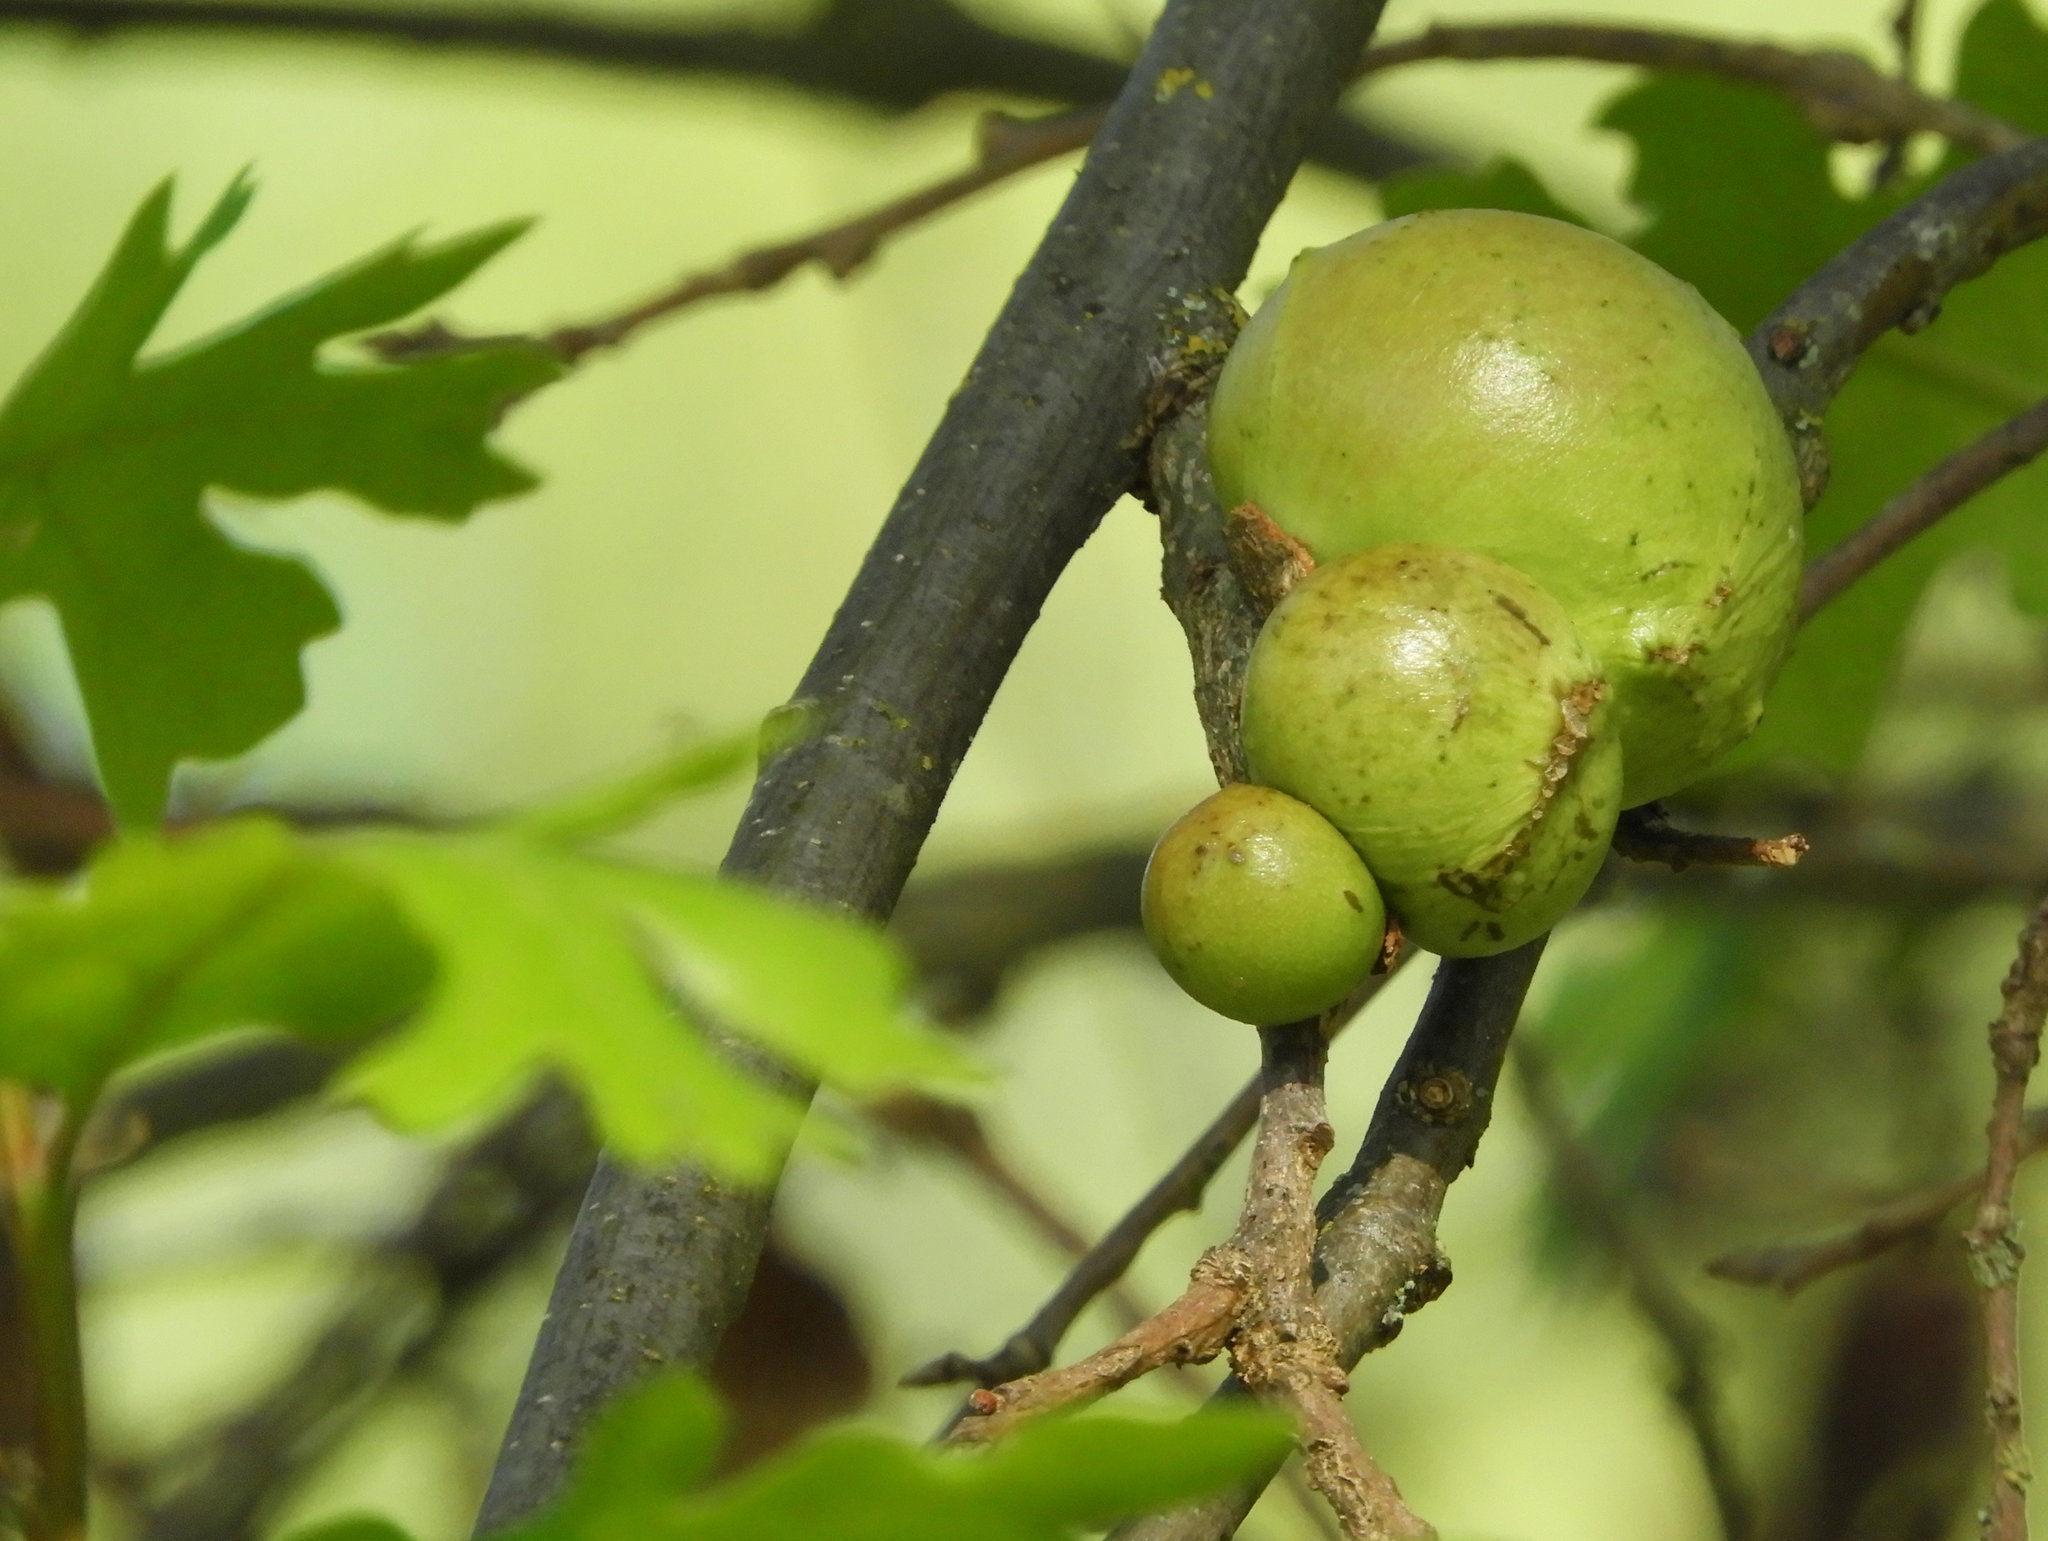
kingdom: Animalia
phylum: Arthropoda
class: Insecta
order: Hymenoptera
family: Cynipidae
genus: Andricus
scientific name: Andricus quercuscalifornicus
